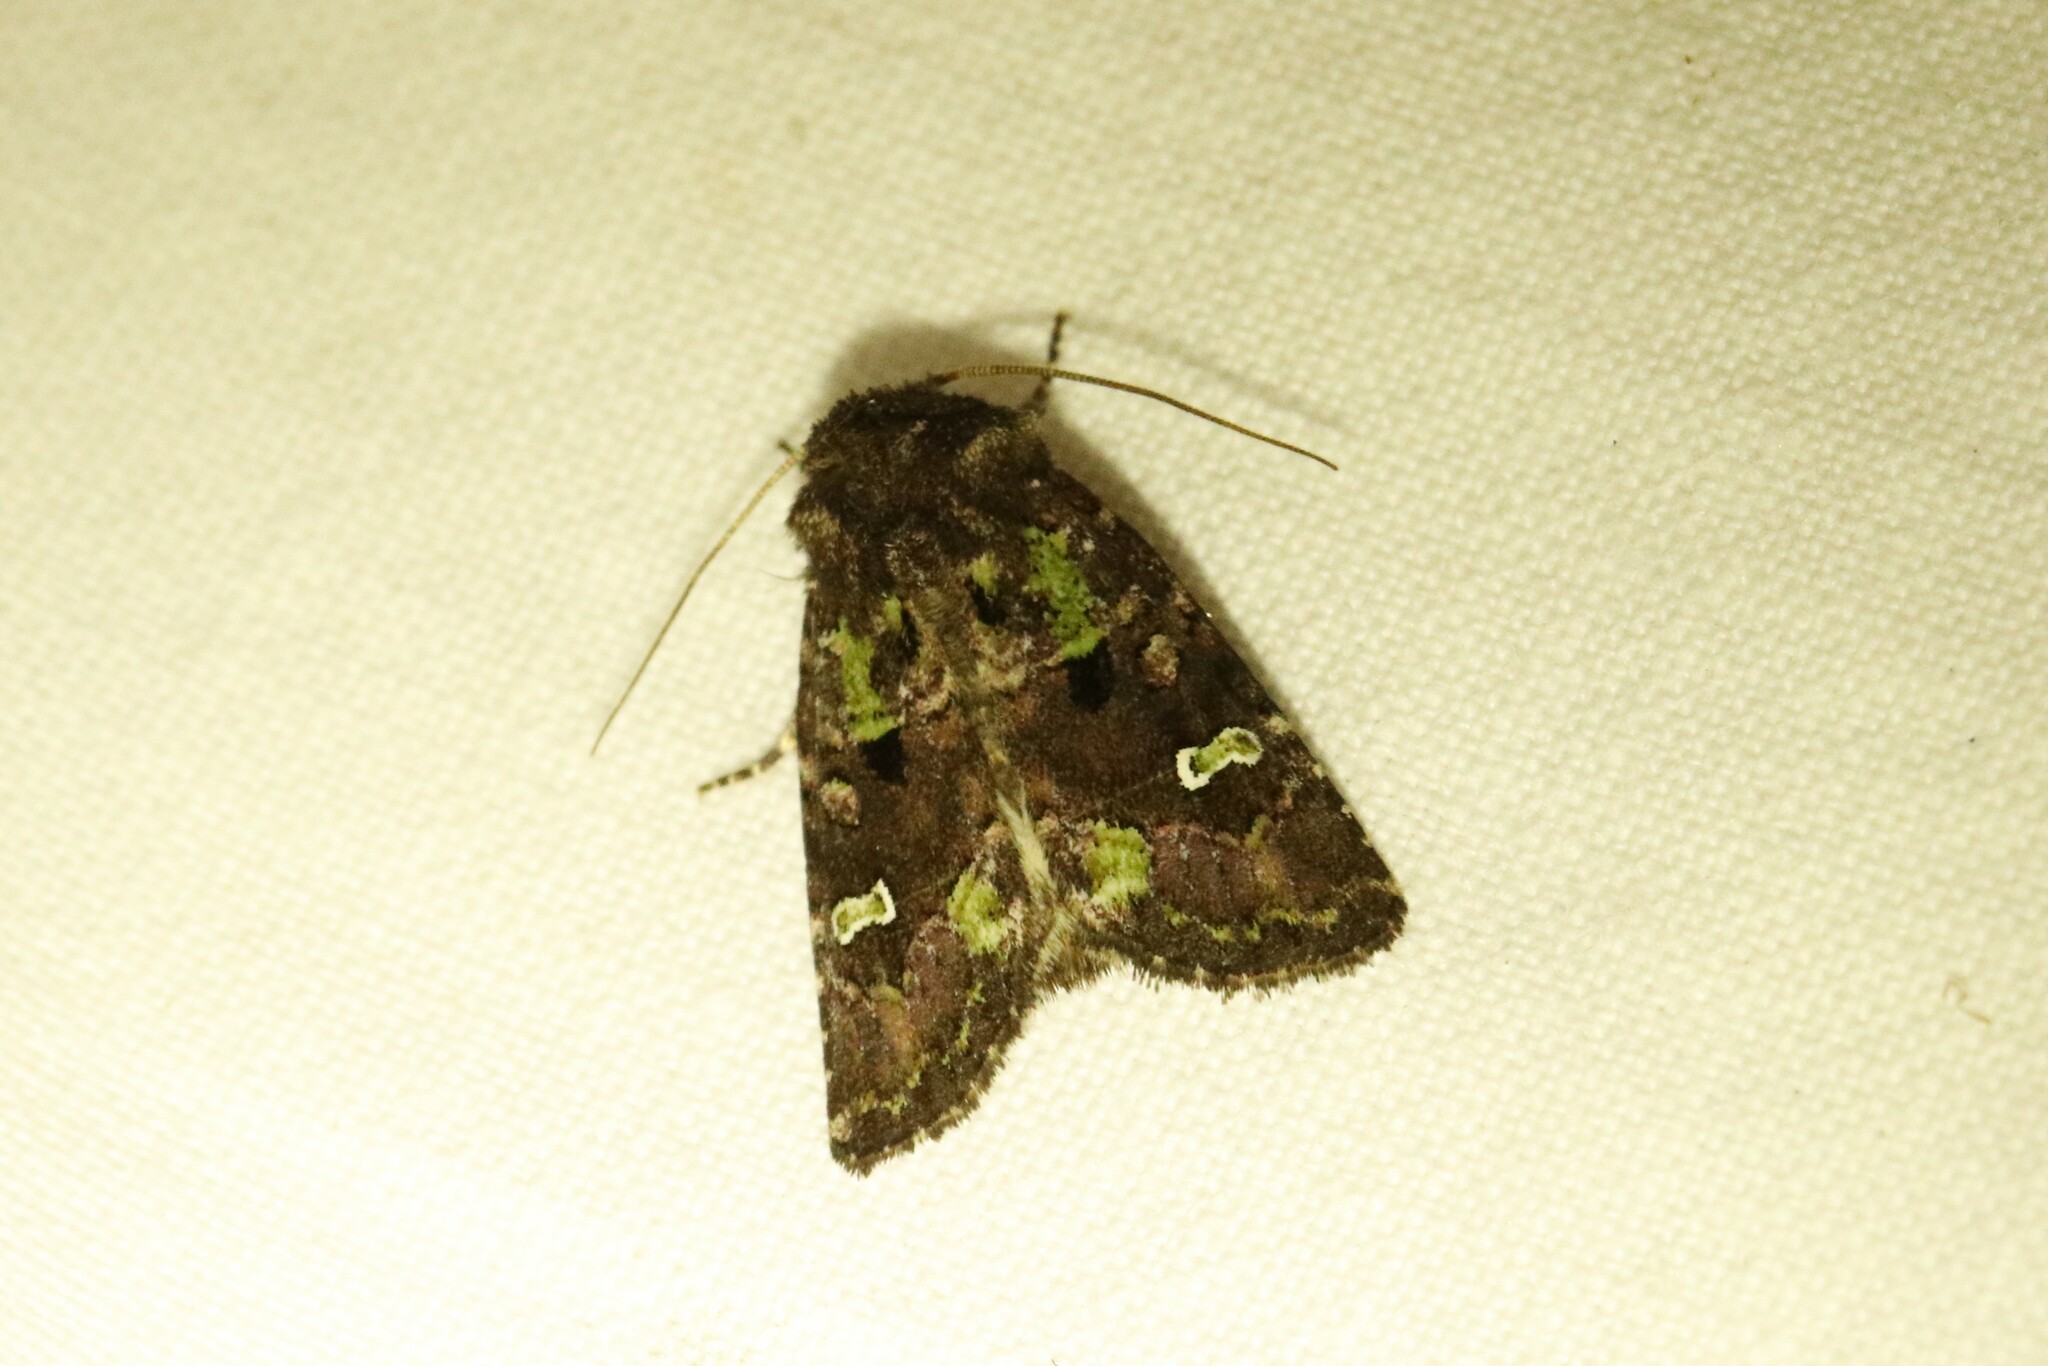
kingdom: Animalia
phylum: Arthropoda
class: Insecta
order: Lepidoptera
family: Noctuidae
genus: Lacinipolia
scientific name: Lacinipolia renigera
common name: Kidney-spotted minor
